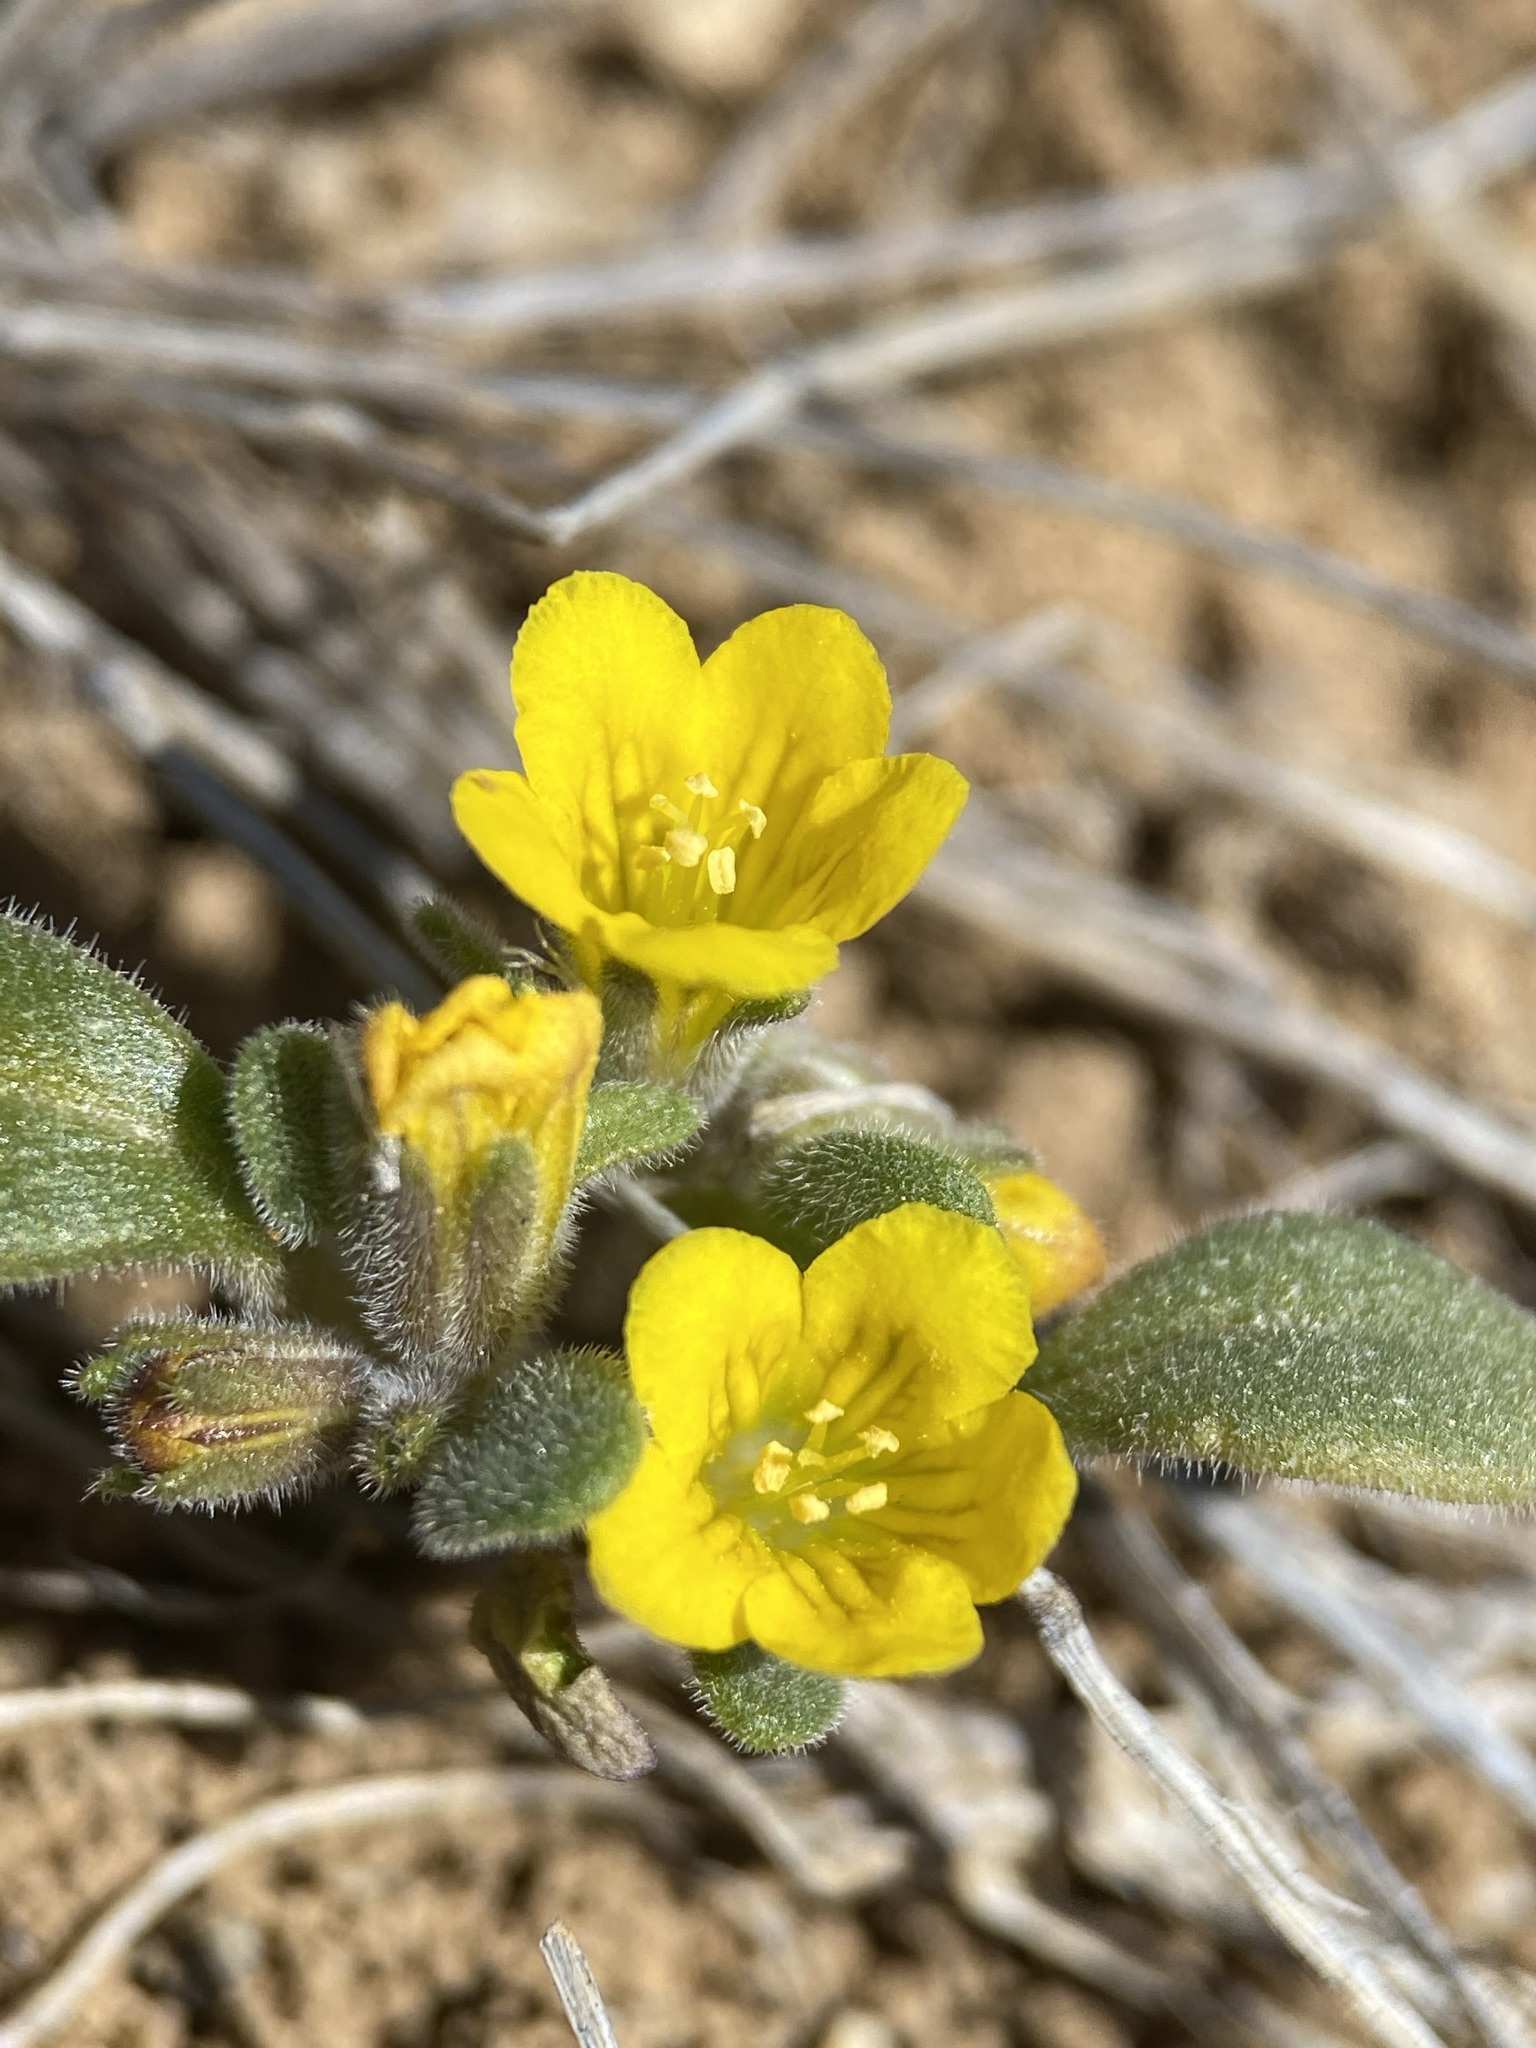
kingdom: Plantae
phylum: Tracheophyta
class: Magnoliopsida
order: Boraginales
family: Hydrophyllaceae
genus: Phacelia
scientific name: Phacelia lutea
